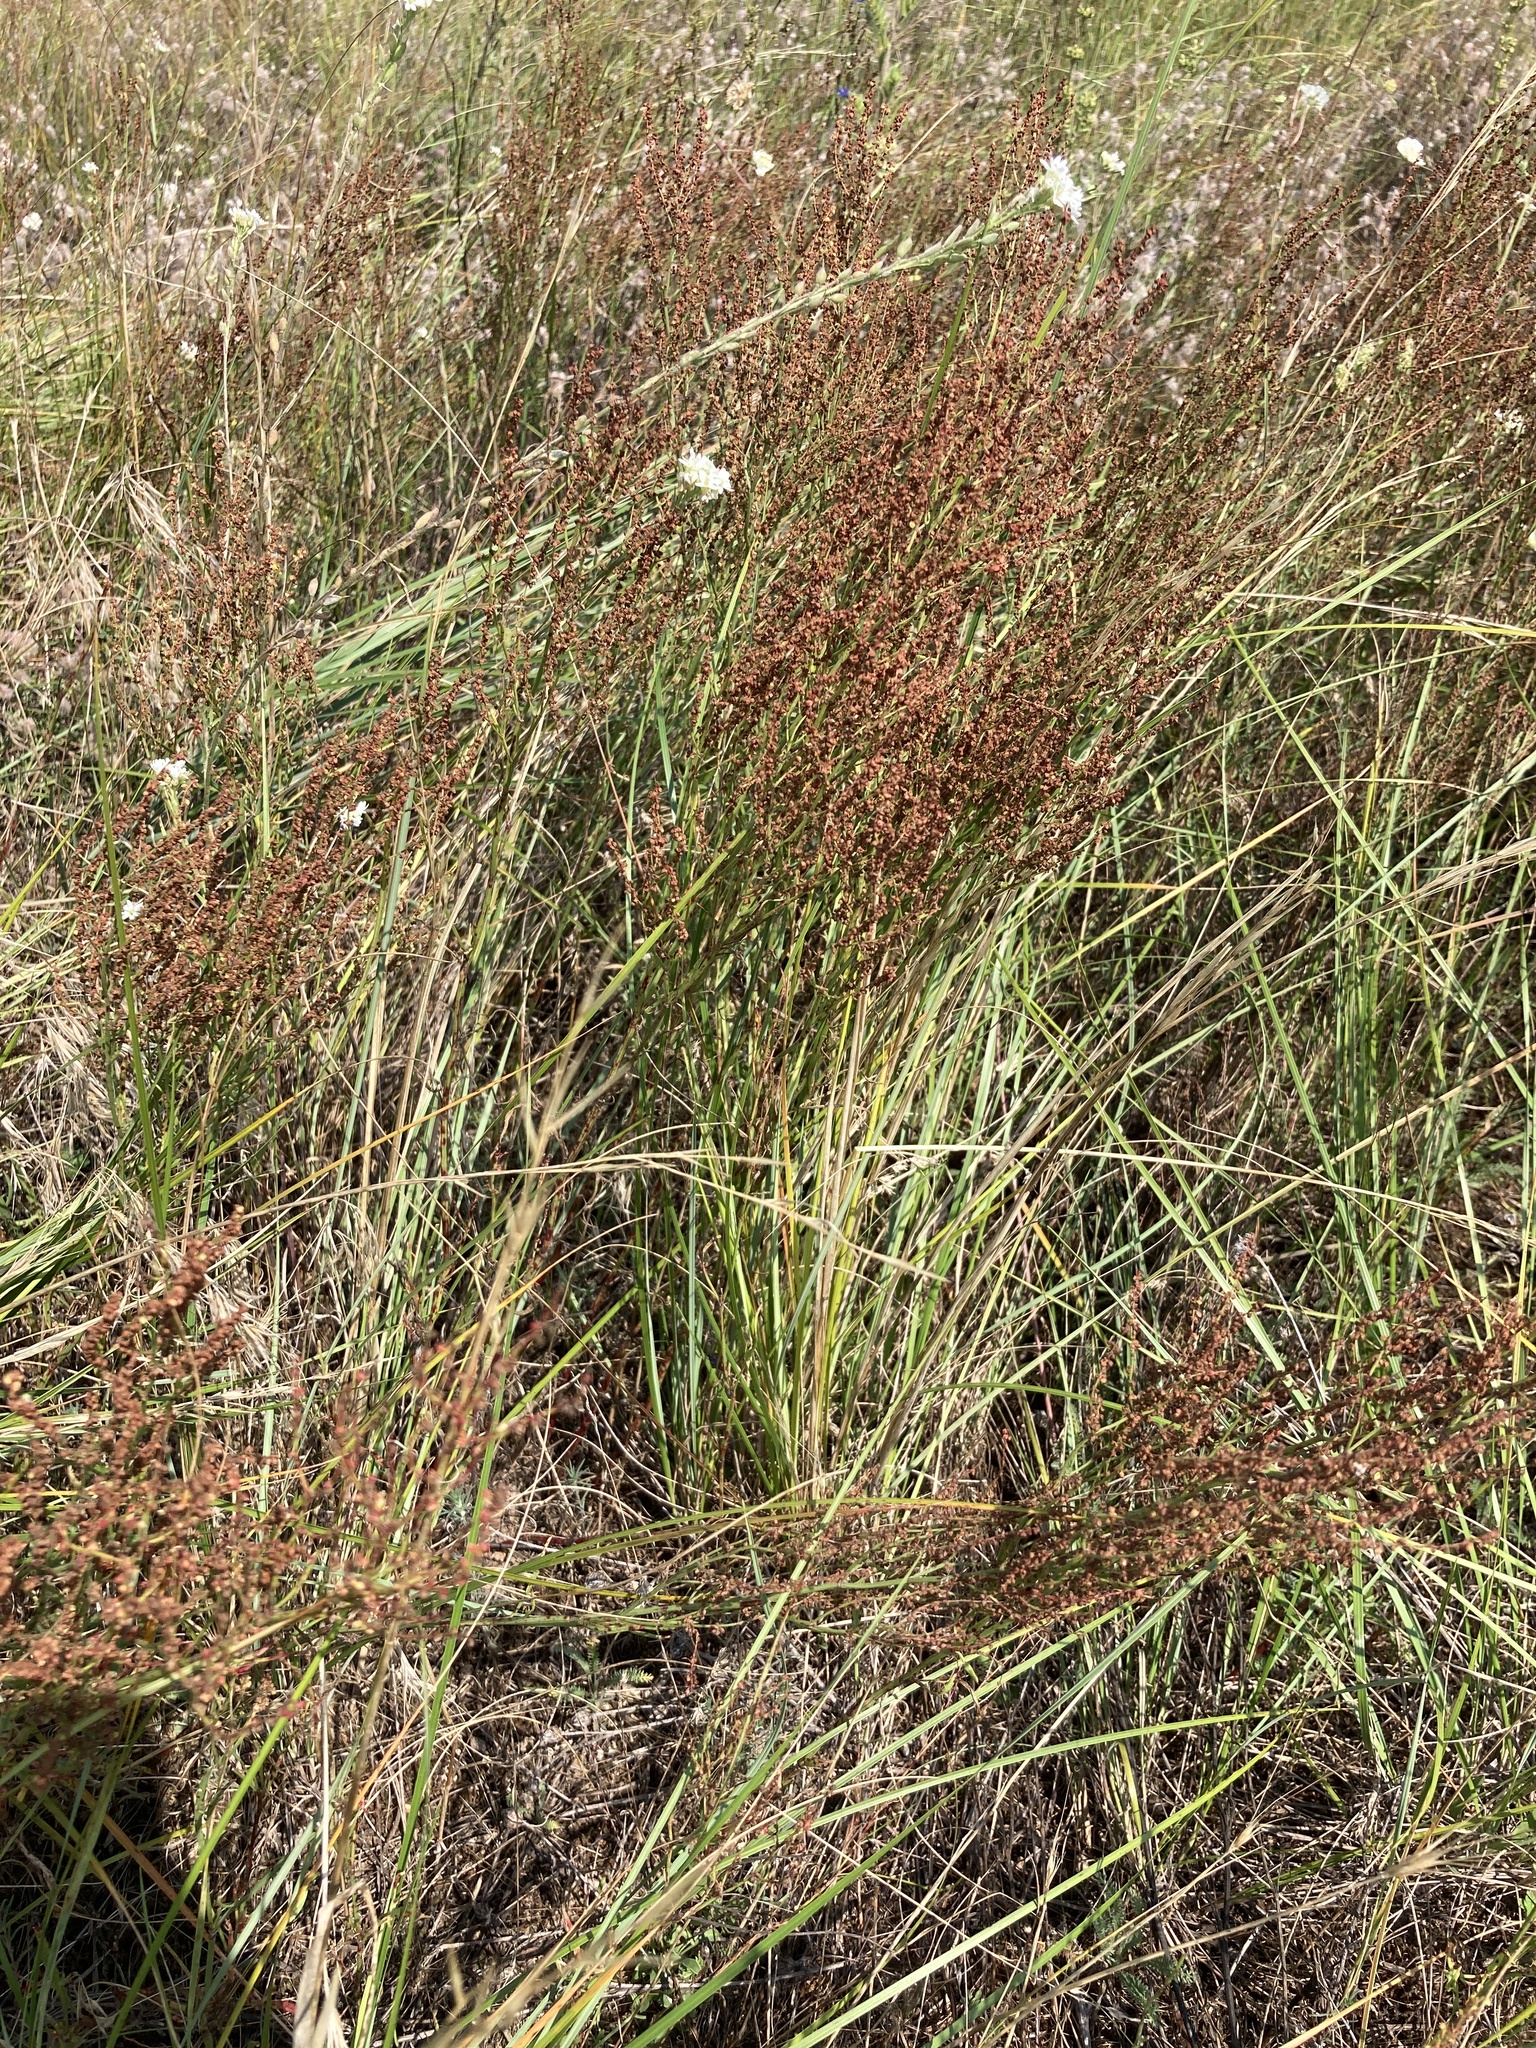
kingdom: Plantae
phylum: Tracheophyta
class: Magnoliopsida
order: Caryophyllales
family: Polygonaceae
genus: Rumex
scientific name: Rumex acetosella
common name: Common sheep sorrel
